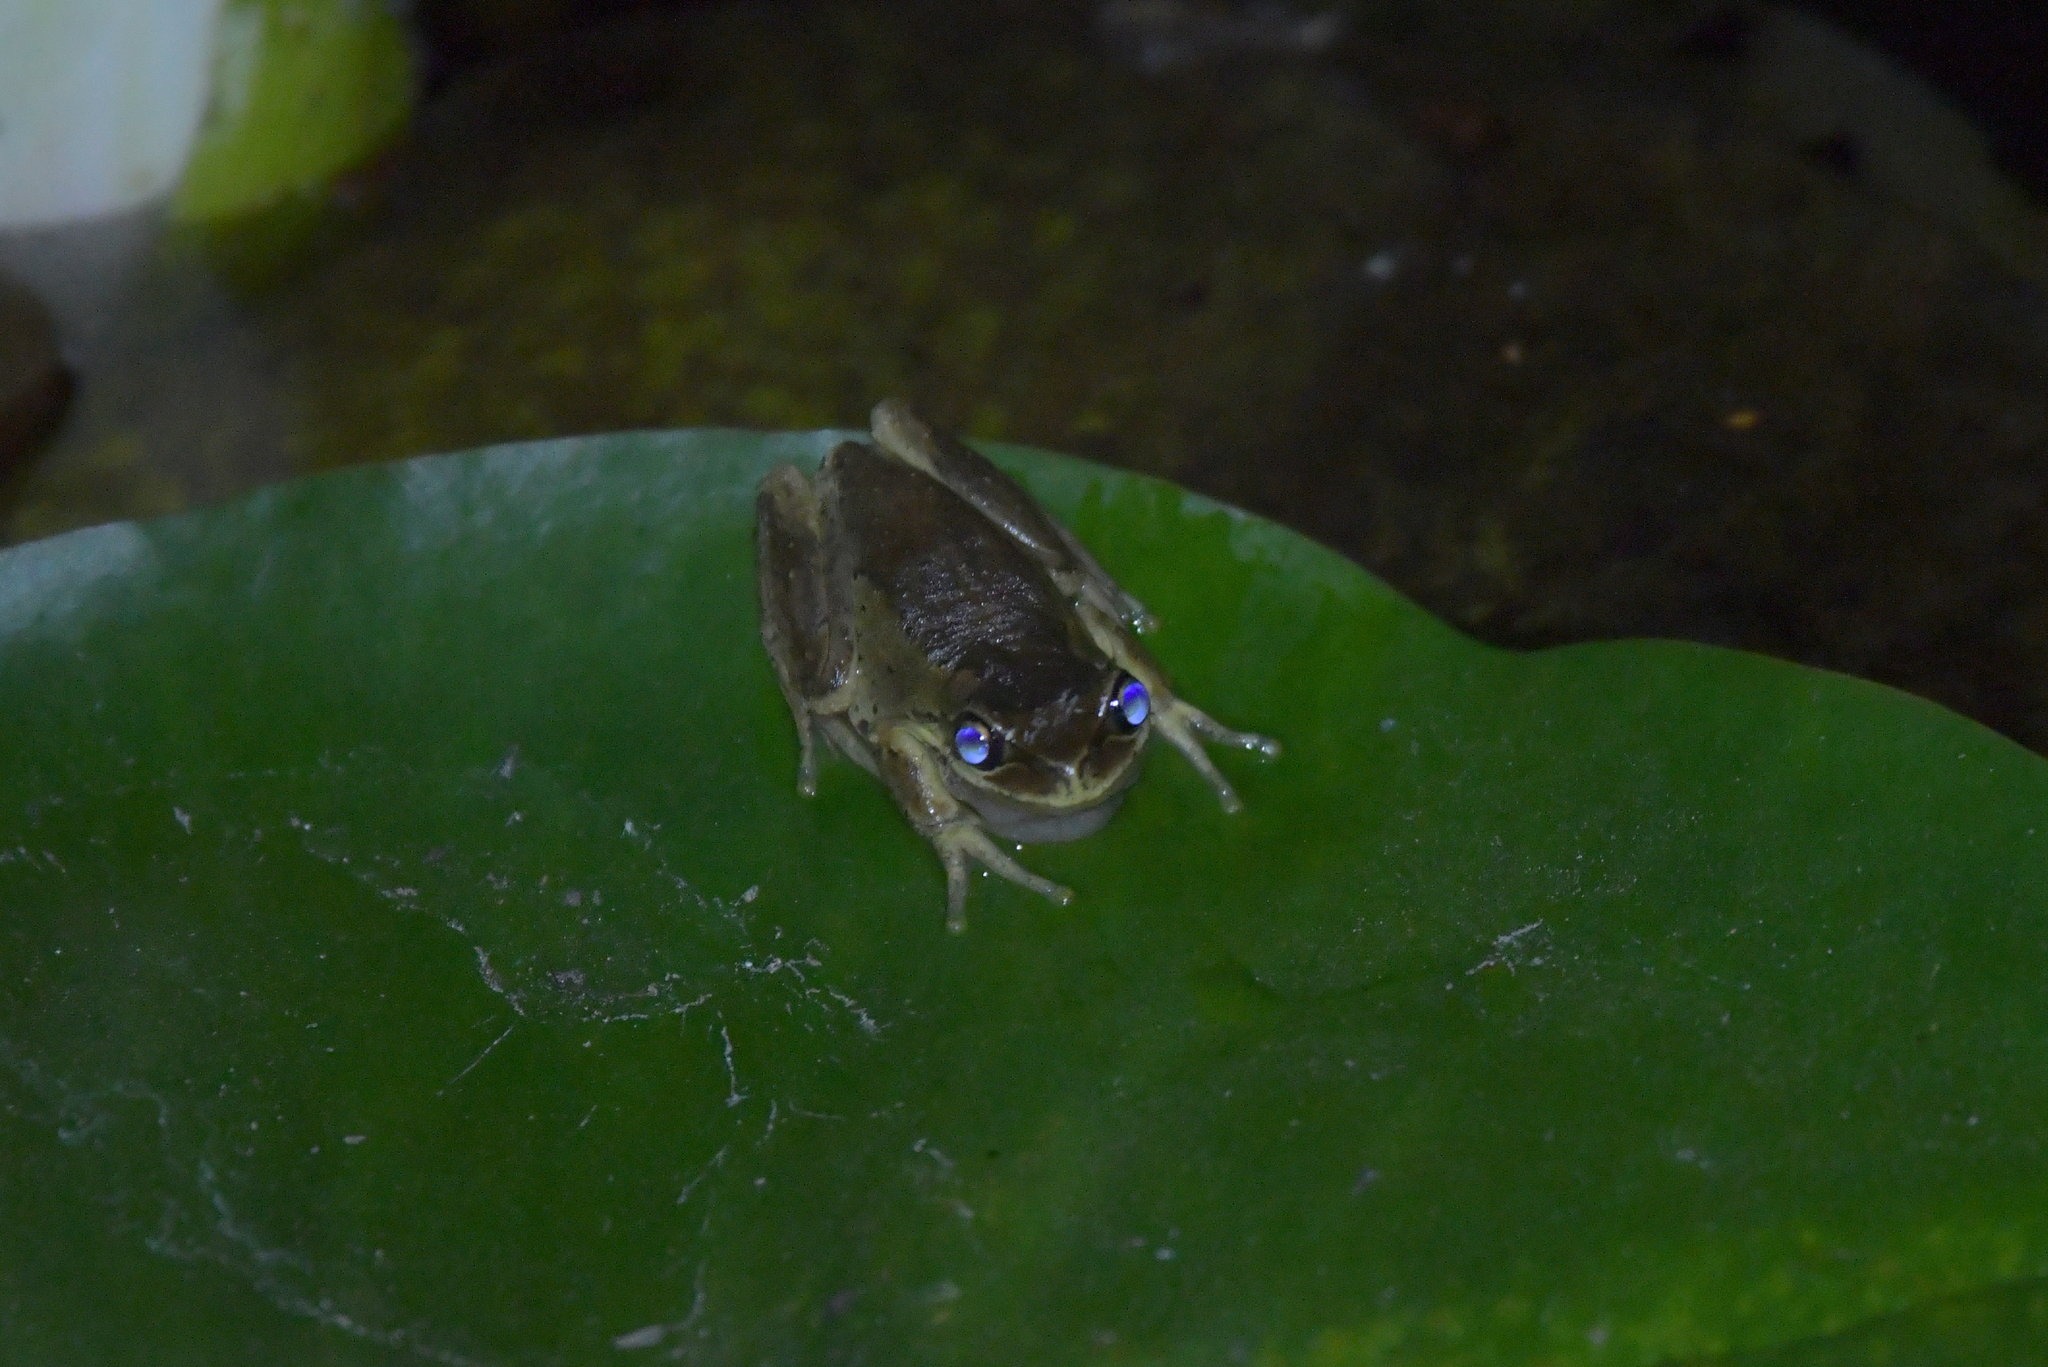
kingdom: Animalia
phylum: Chordata
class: Amphibia
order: Anura
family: Pelodryadidae
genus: Litoria
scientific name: Litoria ewingii
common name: Southern brown tree frog
